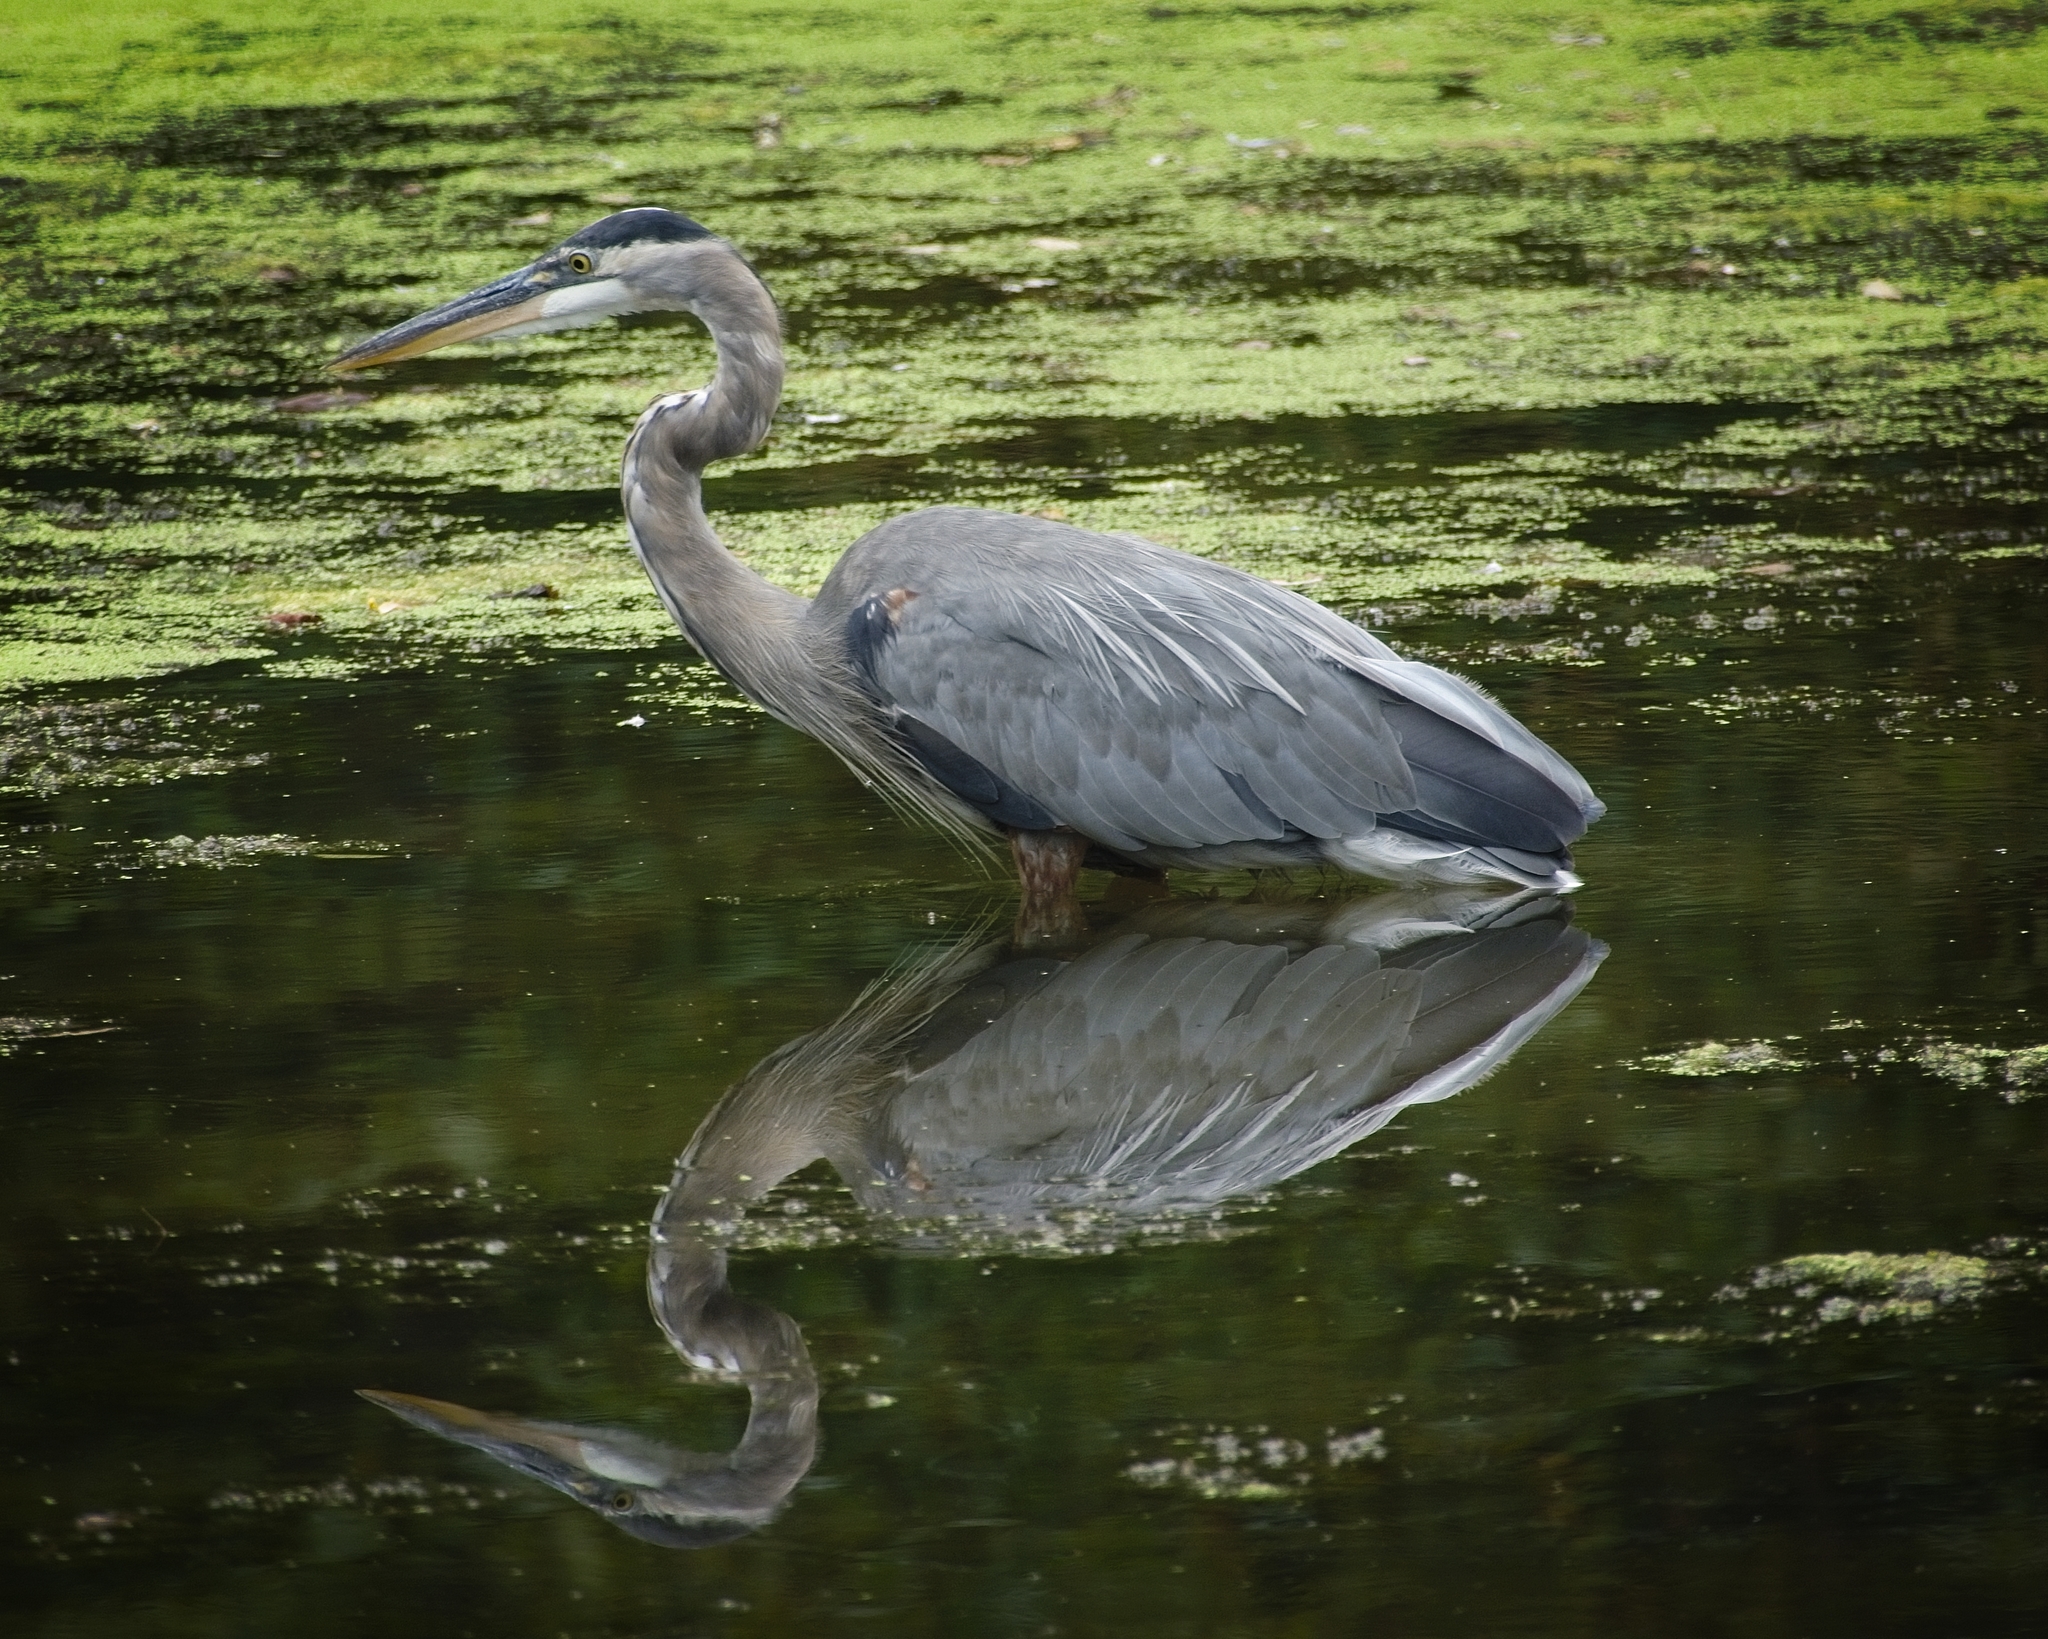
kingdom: Animalia
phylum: Chordata
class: Aves
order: Pelecaniformes
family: Ardeidae
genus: Ardea
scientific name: Ardea herodias
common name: Great blue heron
